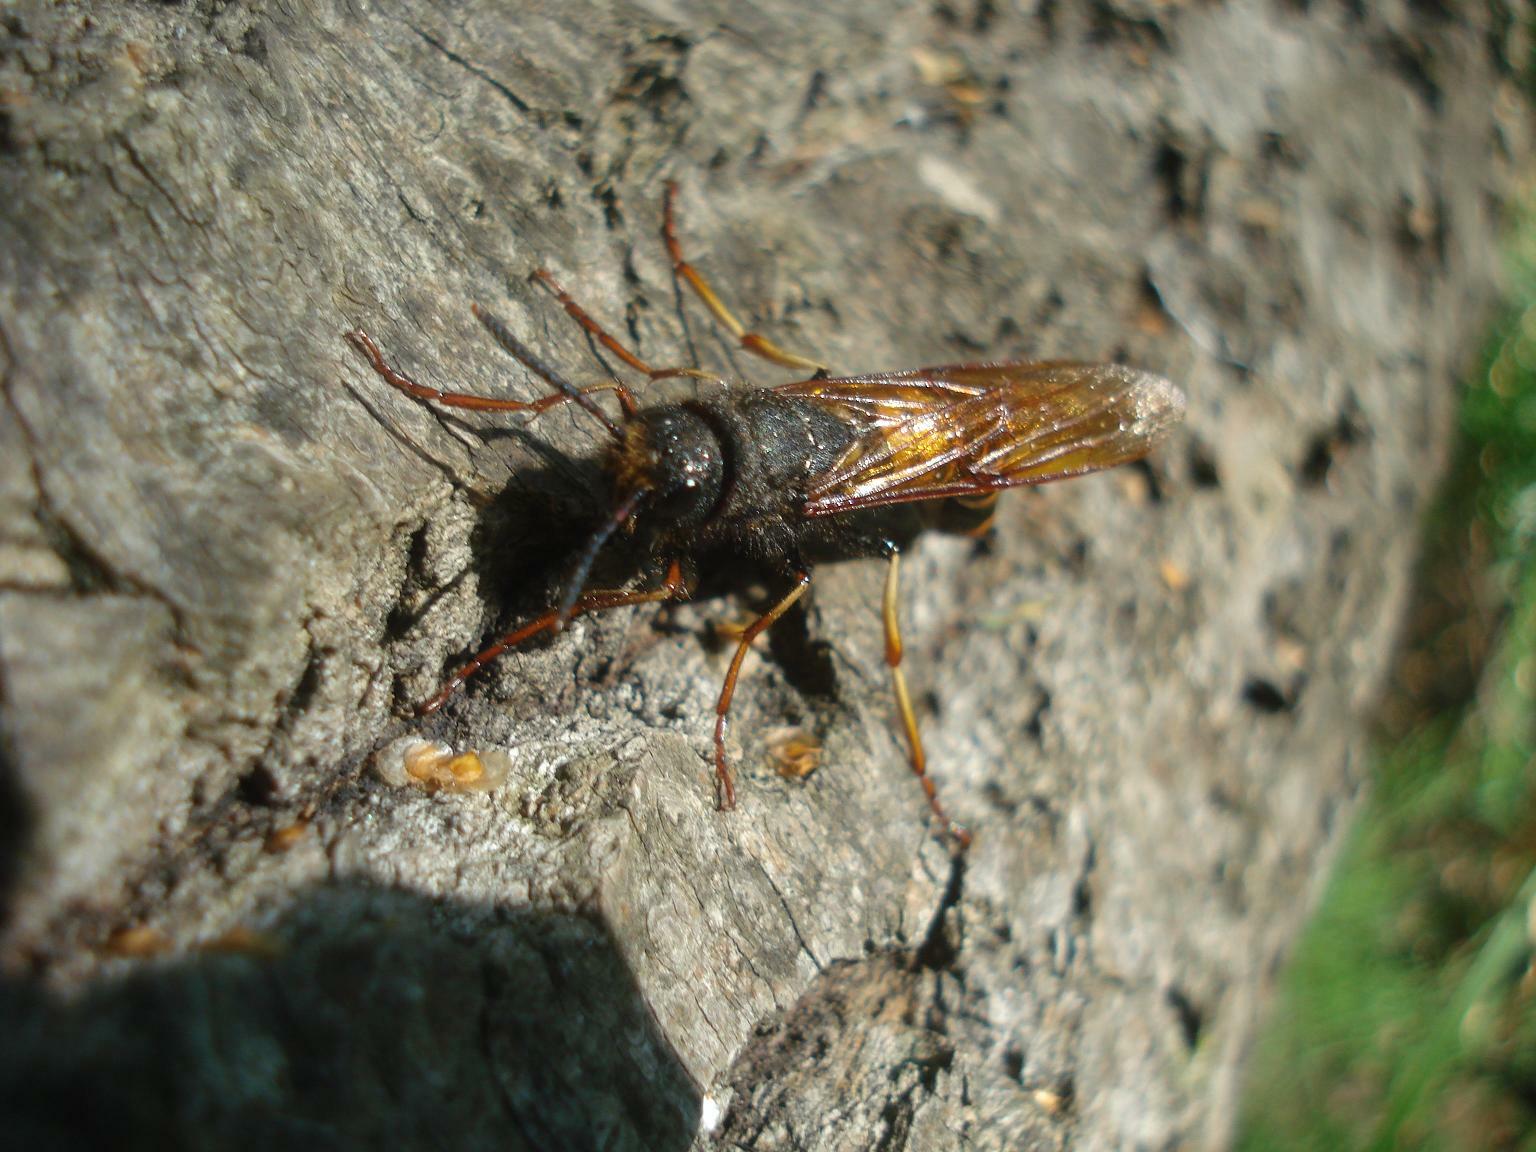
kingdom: Animalia
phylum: Arthropoda
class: Insecta
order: Hymenoptera
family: Siricidae
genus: Tremex
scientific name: Tremex fuscicornis
